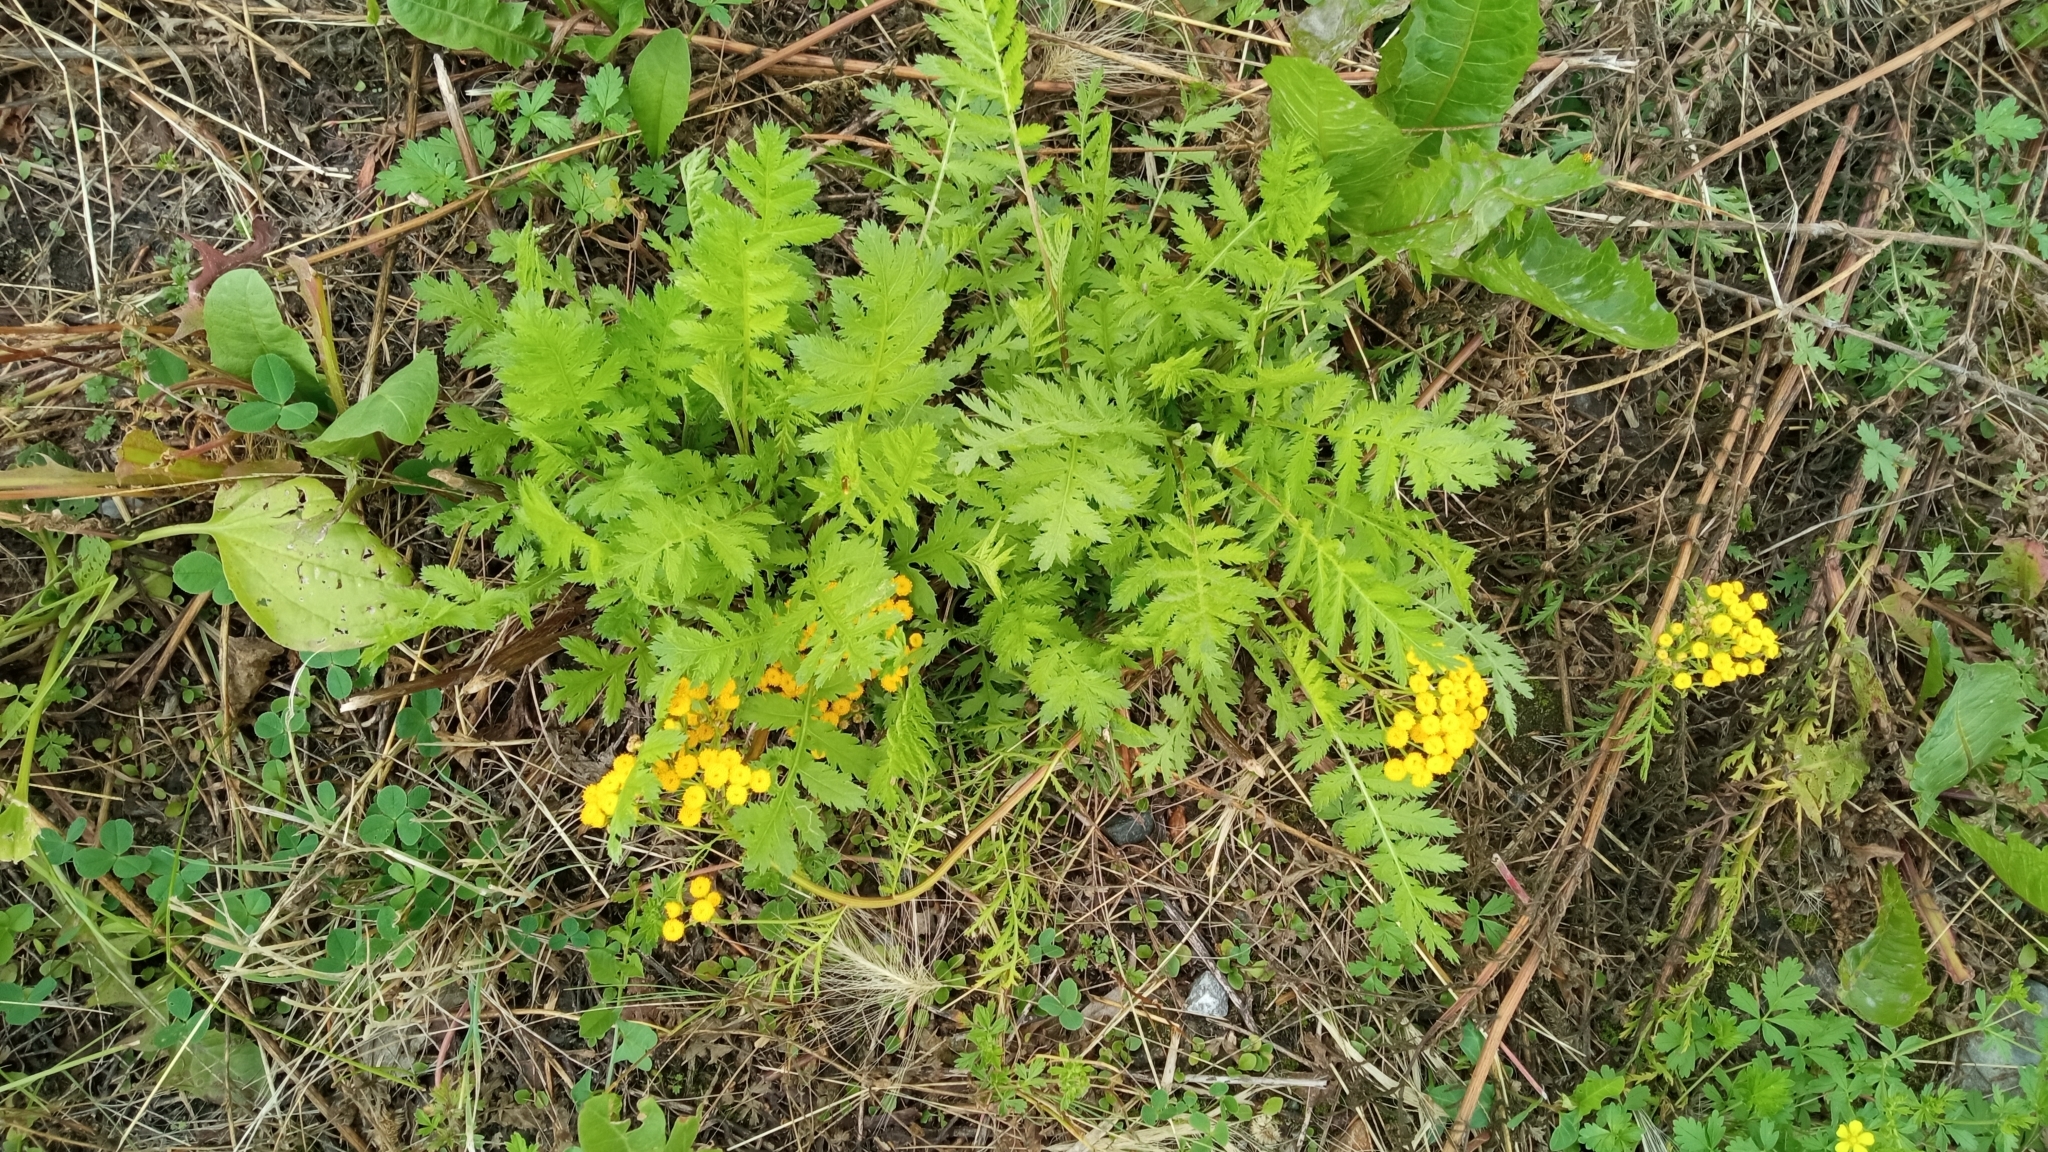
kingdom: Plantae
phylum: Tracheophyta
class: Magnoliopsida
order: Asterales
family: Asteraceae
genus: Tanacetum
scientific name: Tanacetum vulgare
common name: Common tansy
